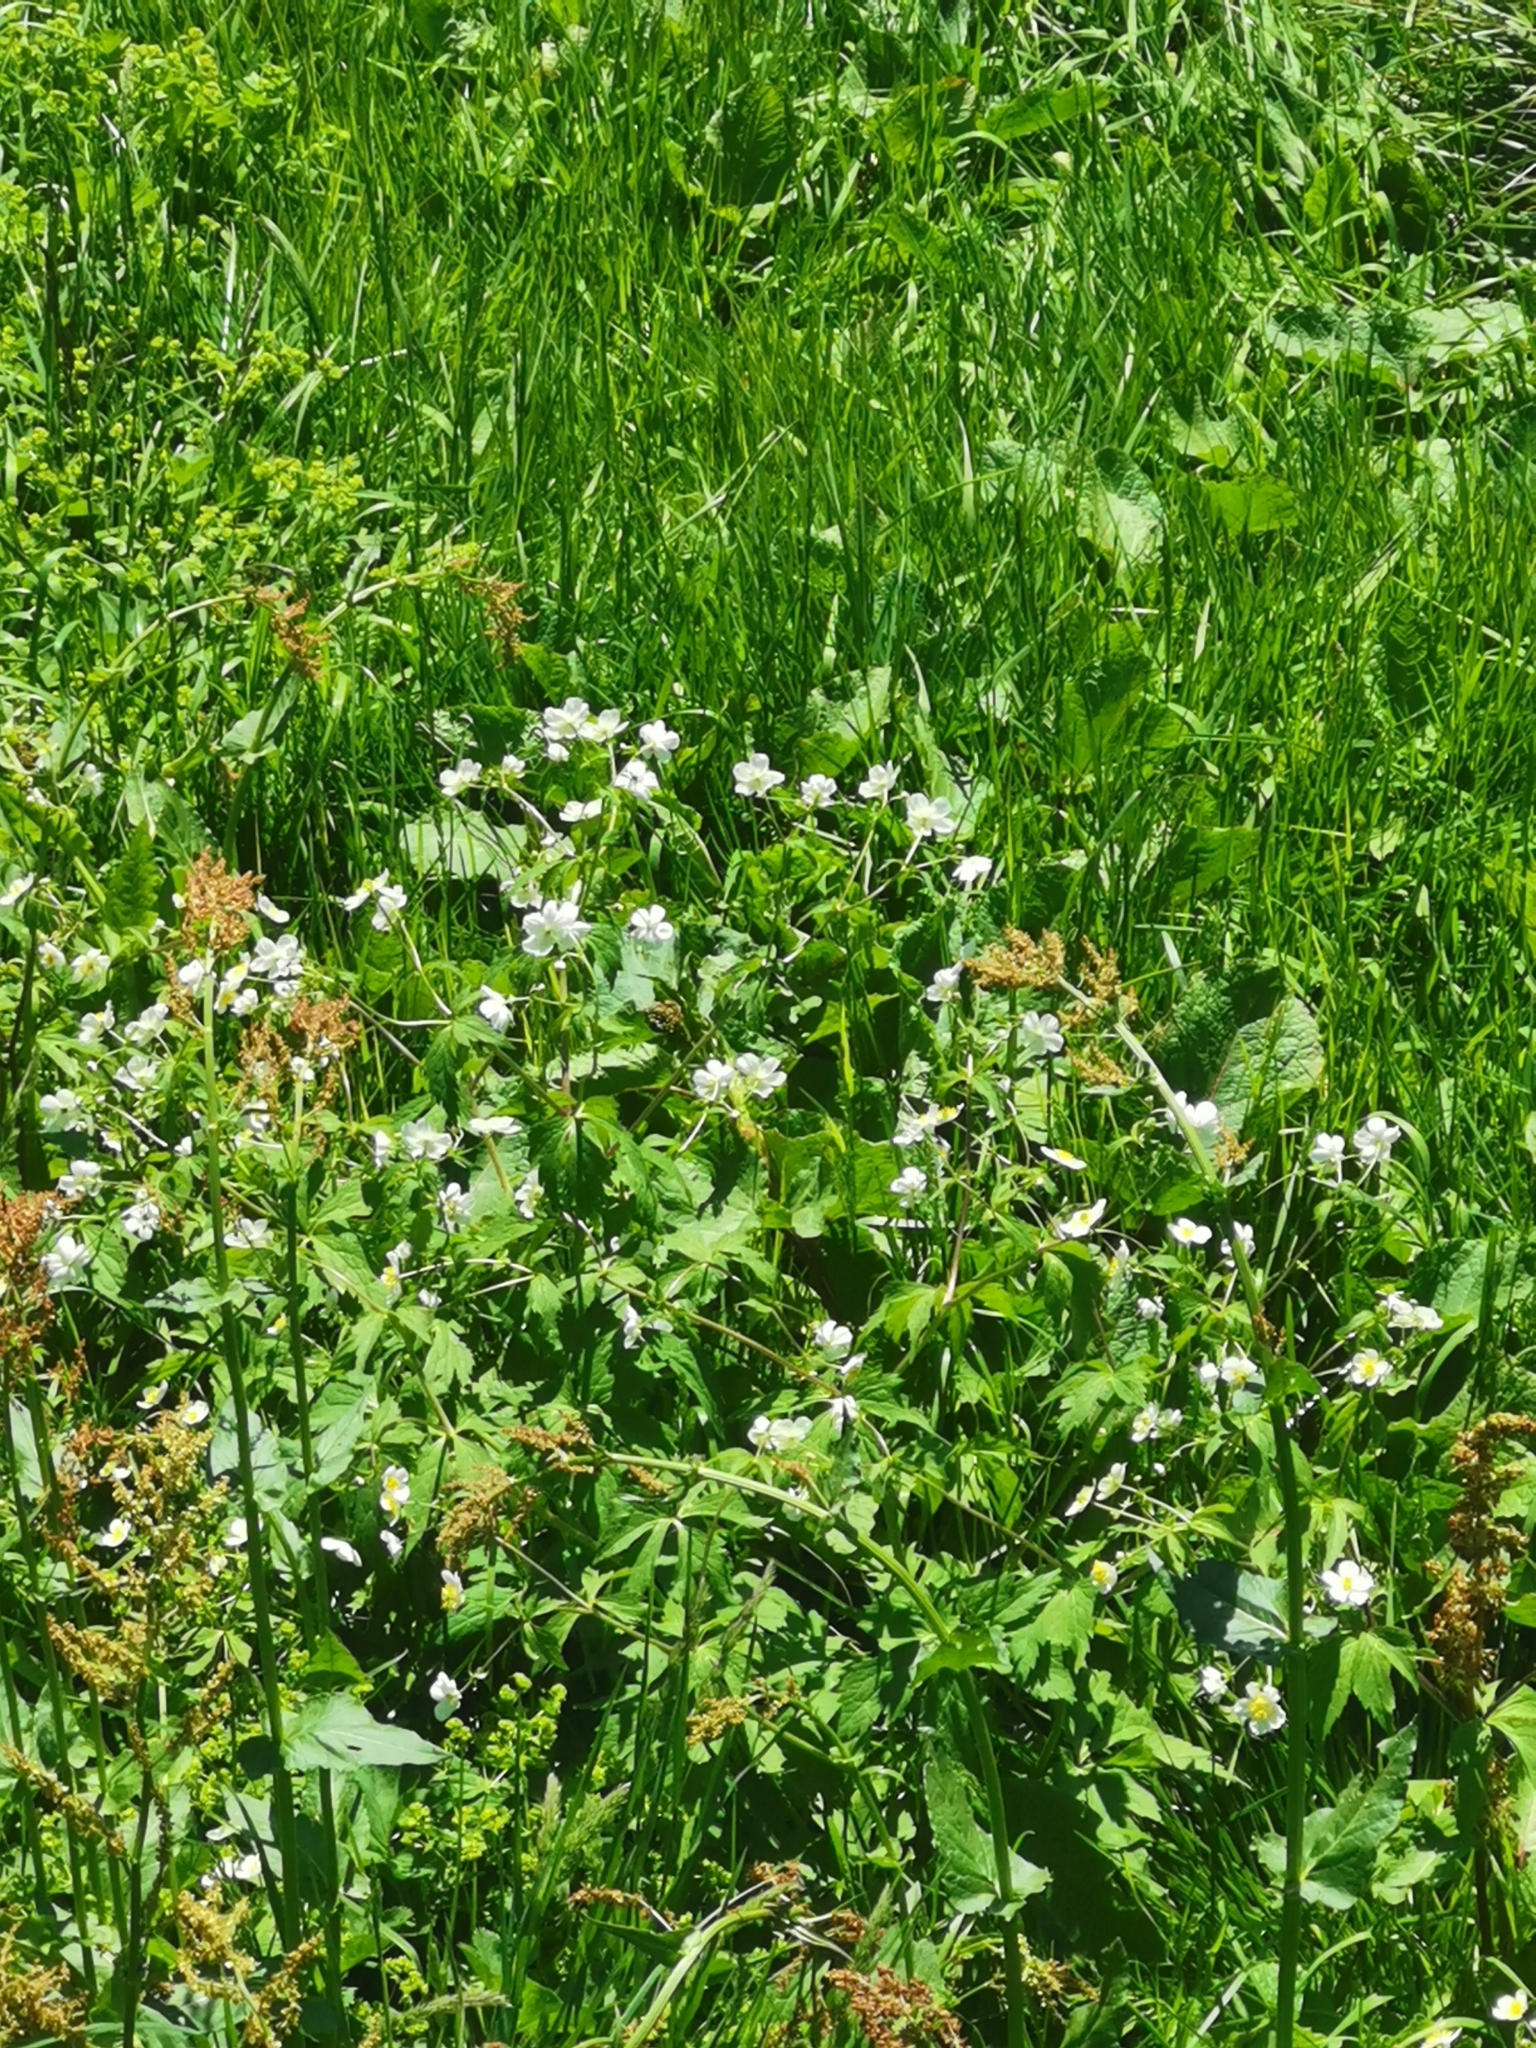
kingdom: Plantae
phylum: Tracheophyta
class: Magnoliopsida
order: Ranunculales
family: Ranunculaceae
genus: Ranunculus
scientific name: Ranunculus aconitifolius
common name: Aconite-leaved buttercup
